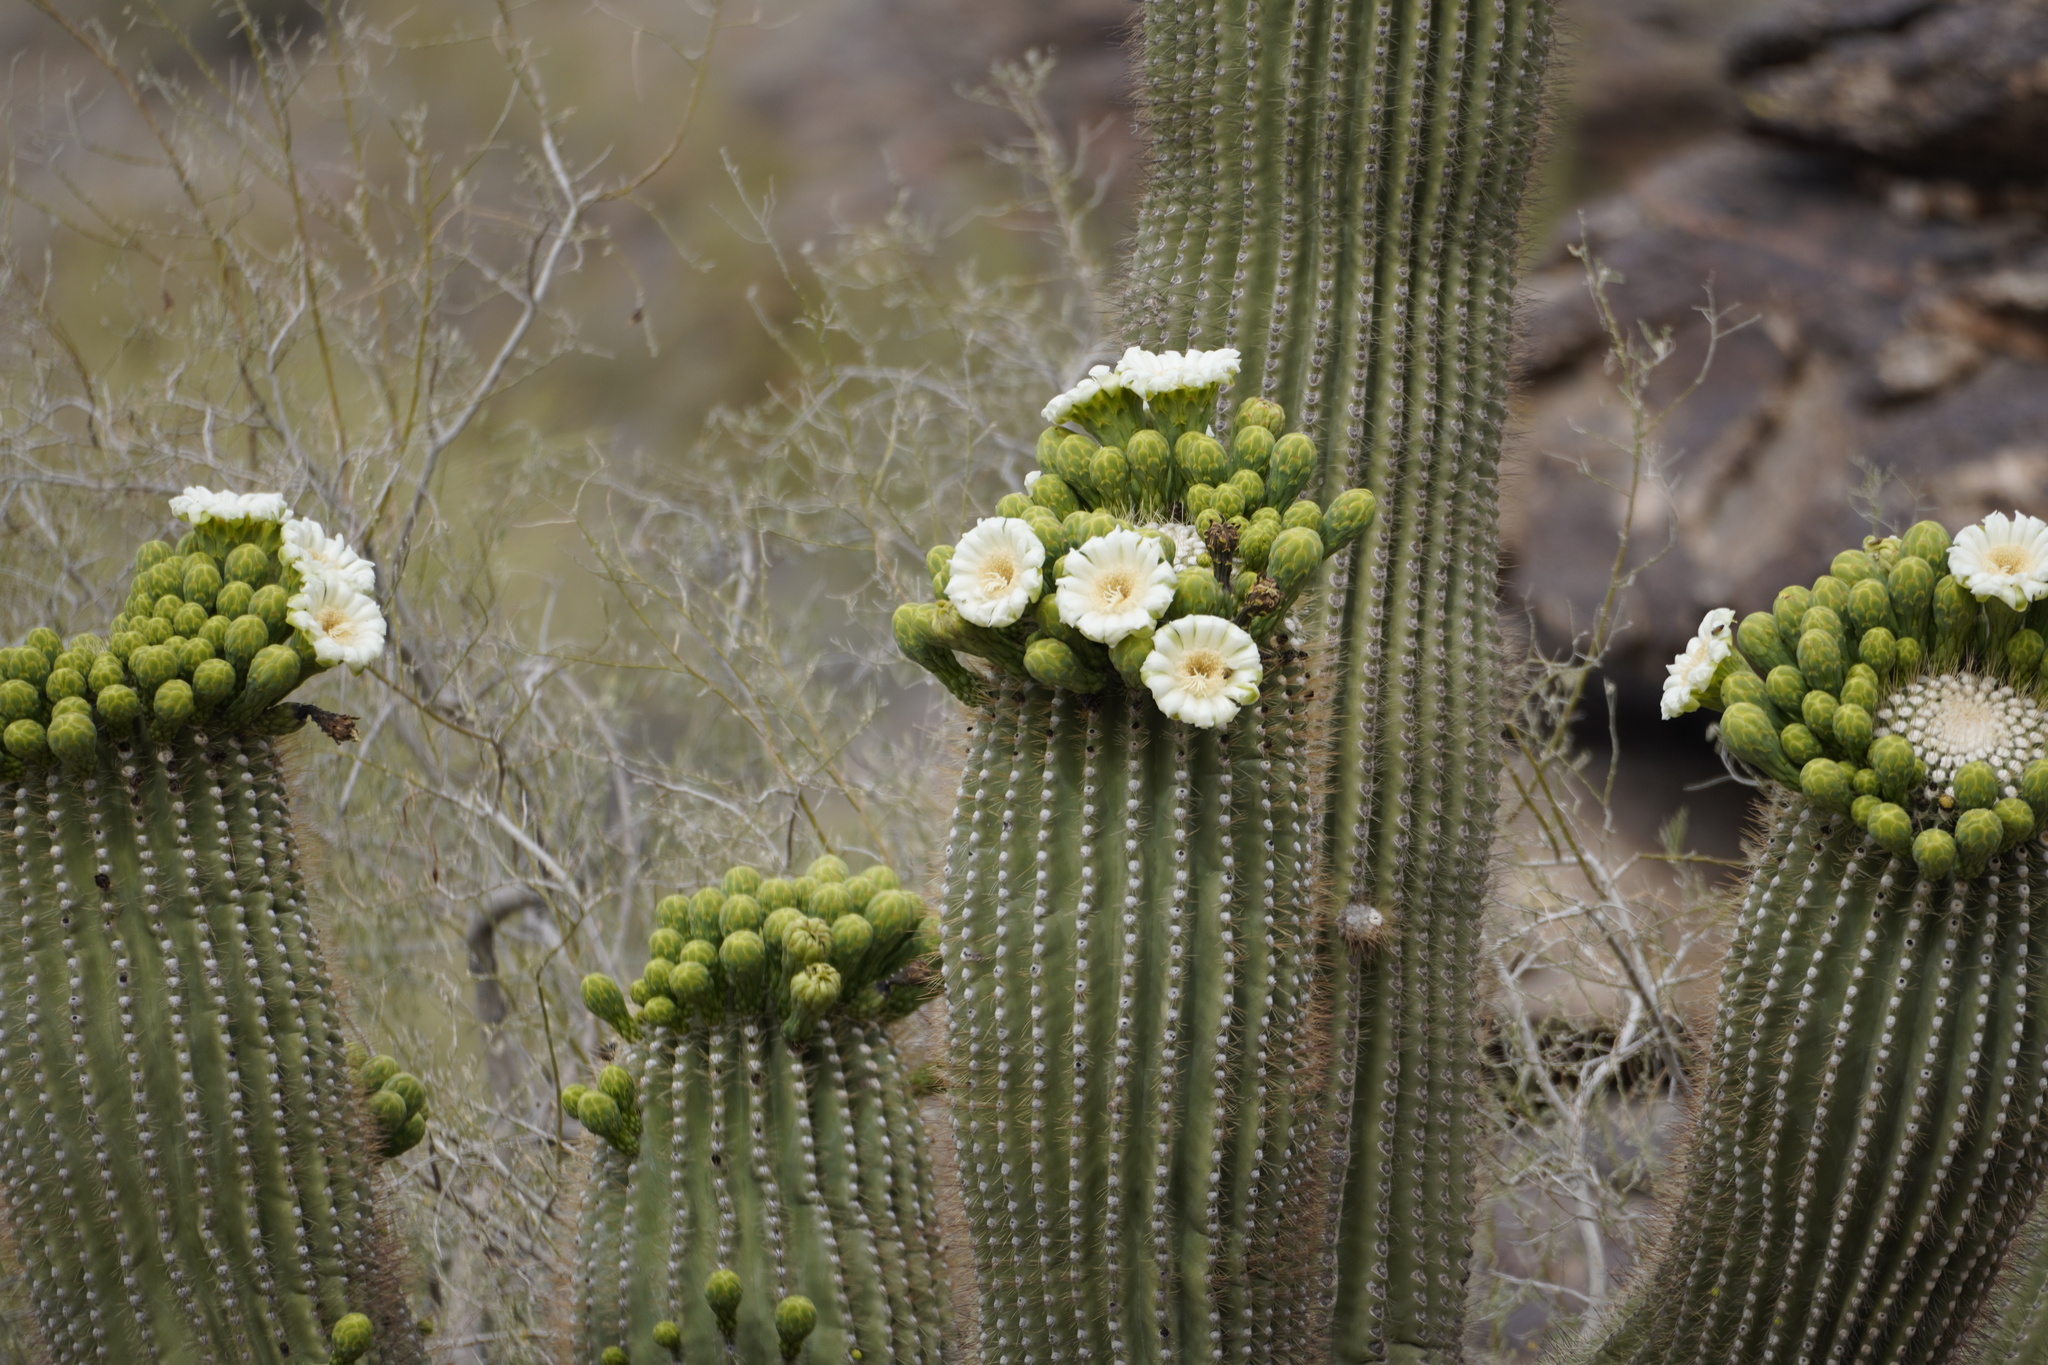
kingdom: Plantae
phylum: Tracheophyta
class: Magnoliopsida
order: Caryophyllales
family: Cactaceae
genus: Carnegiea
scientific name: Carnegiea gigantea
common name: Saguaro
